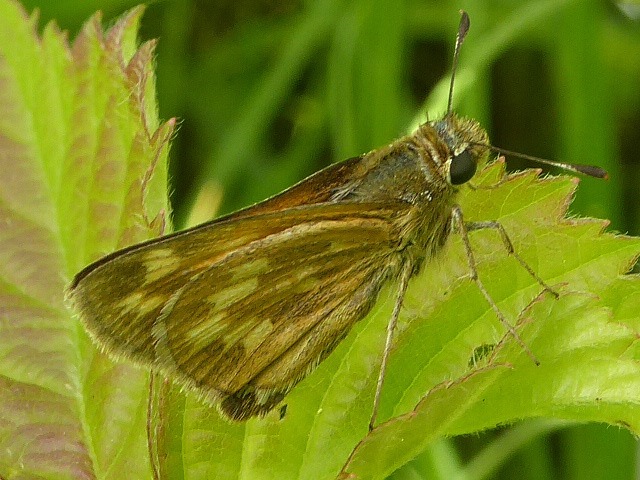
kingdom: Animalia
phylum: Arthropoda
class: Insecta
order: Lepidoptera
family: Hesperiidae
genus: Hesperia
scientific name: Hesperia sassacus
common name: Indian skipper
